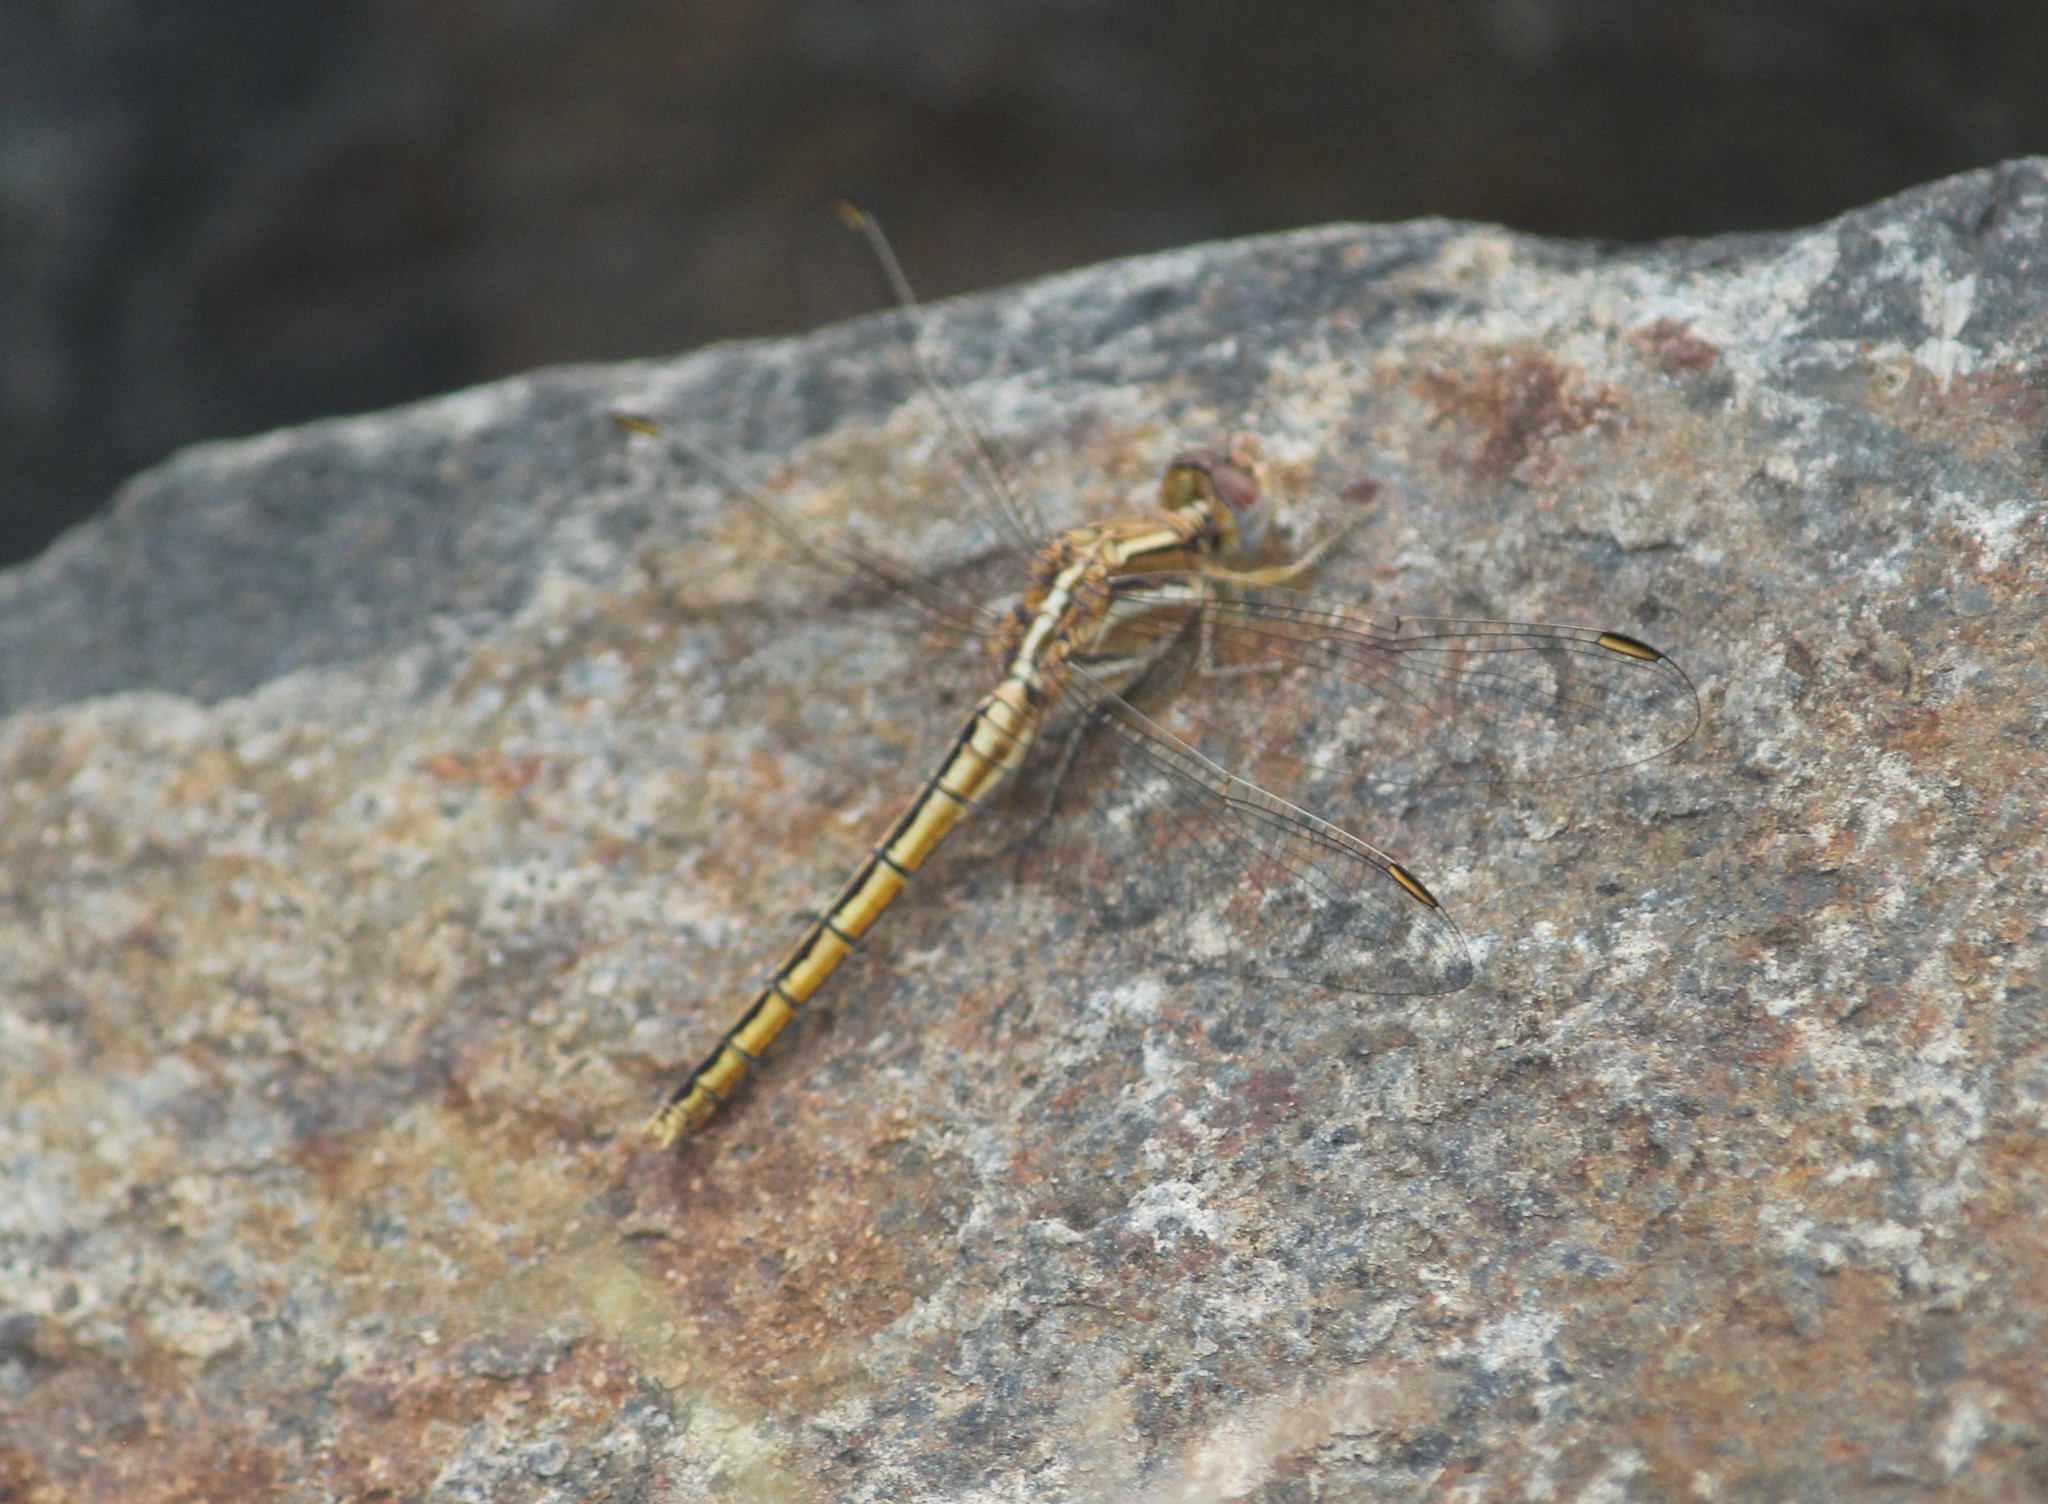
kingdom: Animalia
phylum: Arthropoda
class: Insecta
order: Odonata
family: Libellulidae
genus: Orthetrum
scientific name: Orthetrum taeniolatum
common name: Small skimmer
